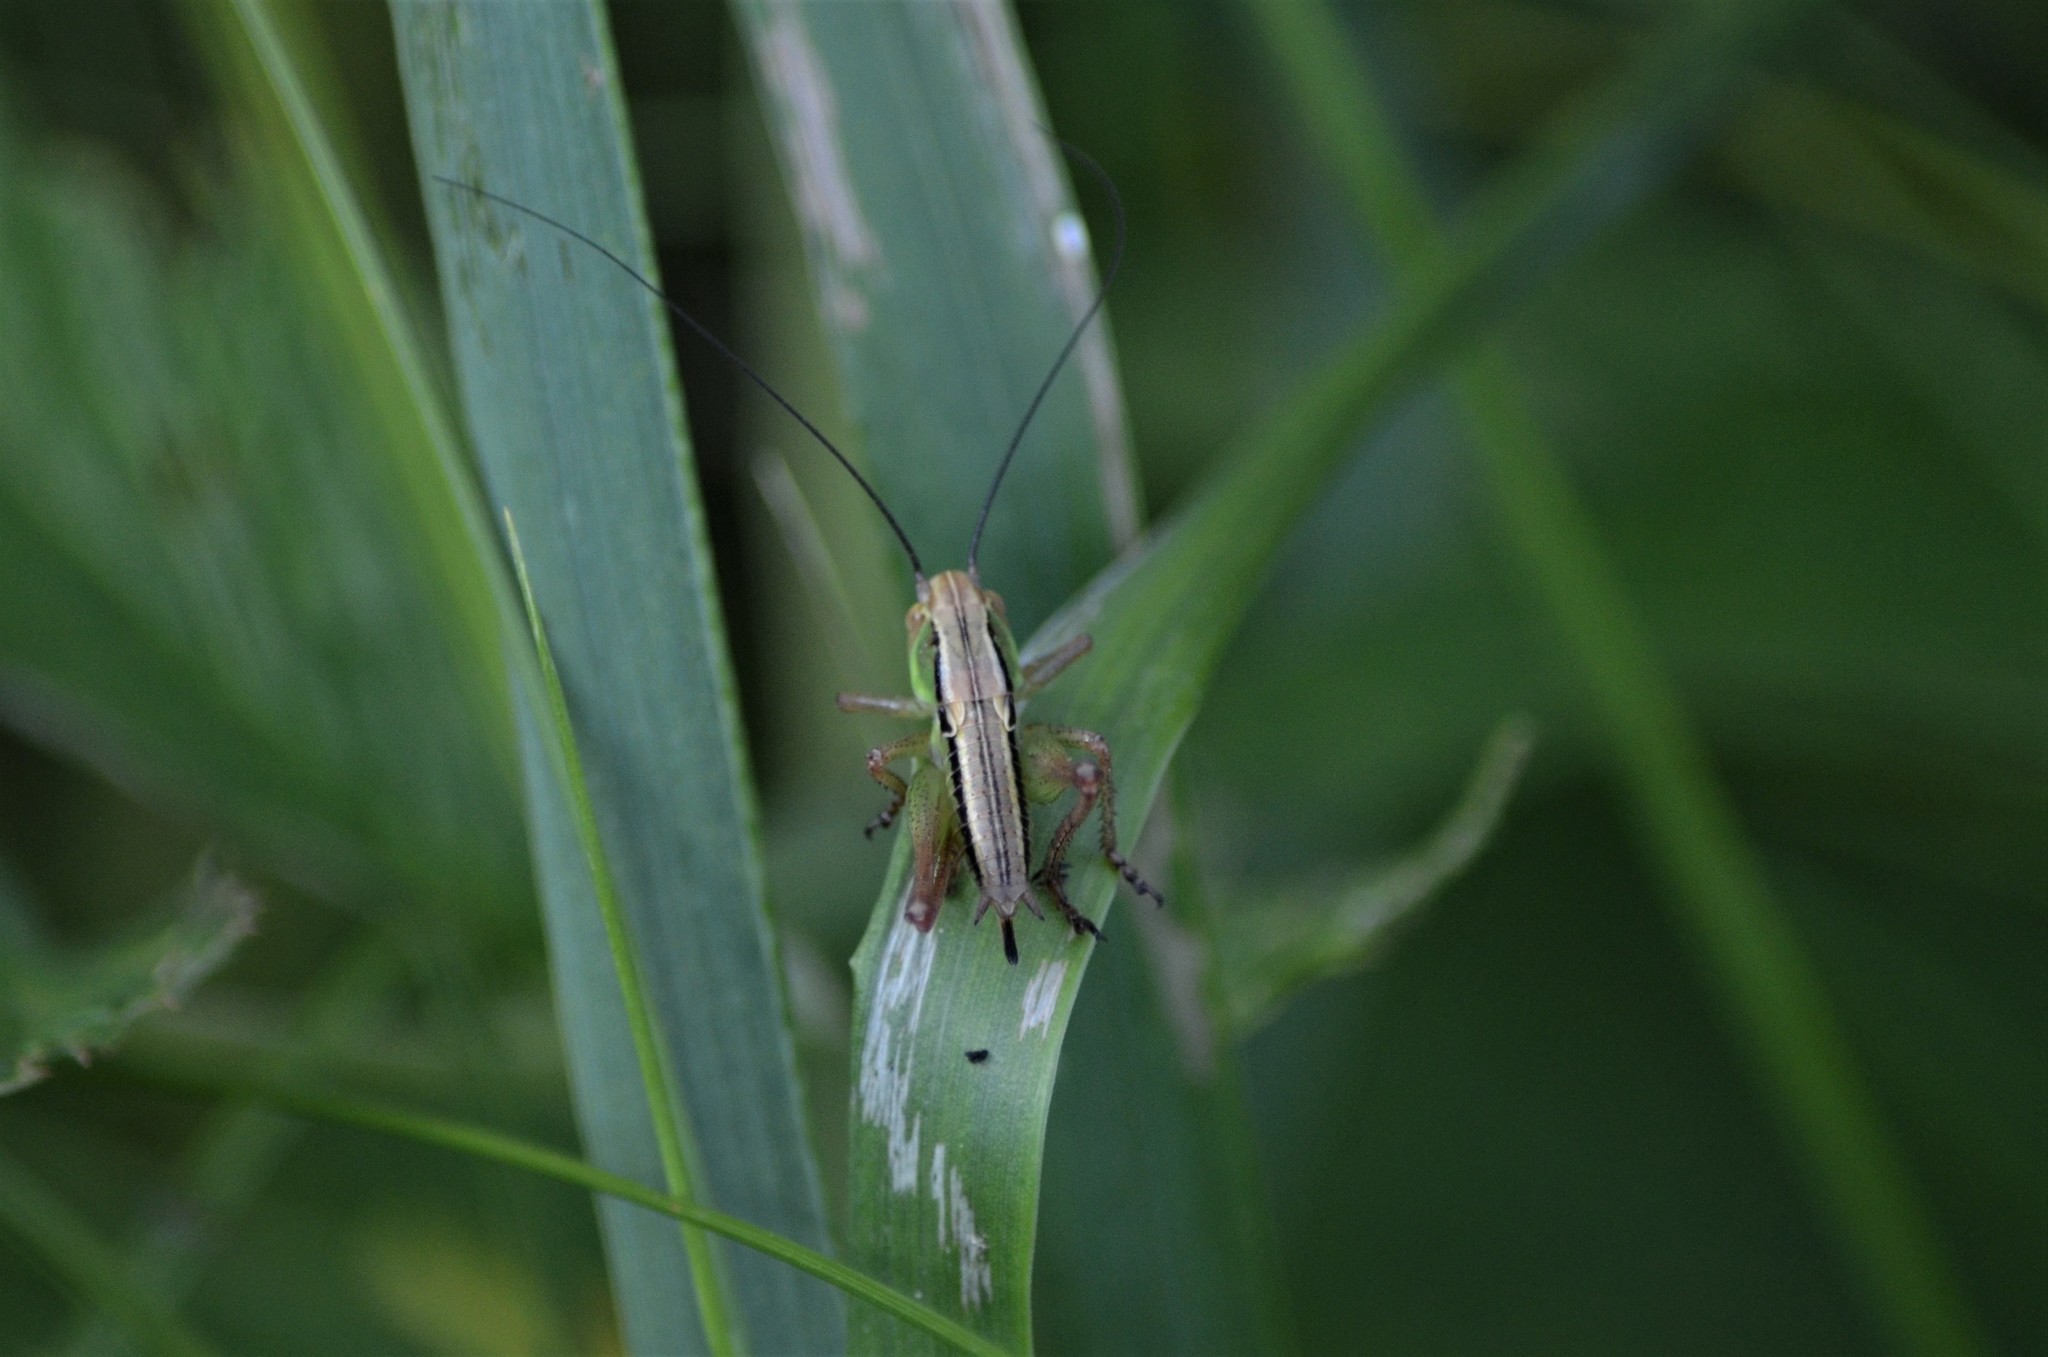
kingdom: Animalia
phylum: Arthropoda
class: Insecta
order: Orthoptera
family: Tettigoniidae
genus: Roeseliana
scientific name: Roeseliana roeselii
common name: Roesel's bush cricket
